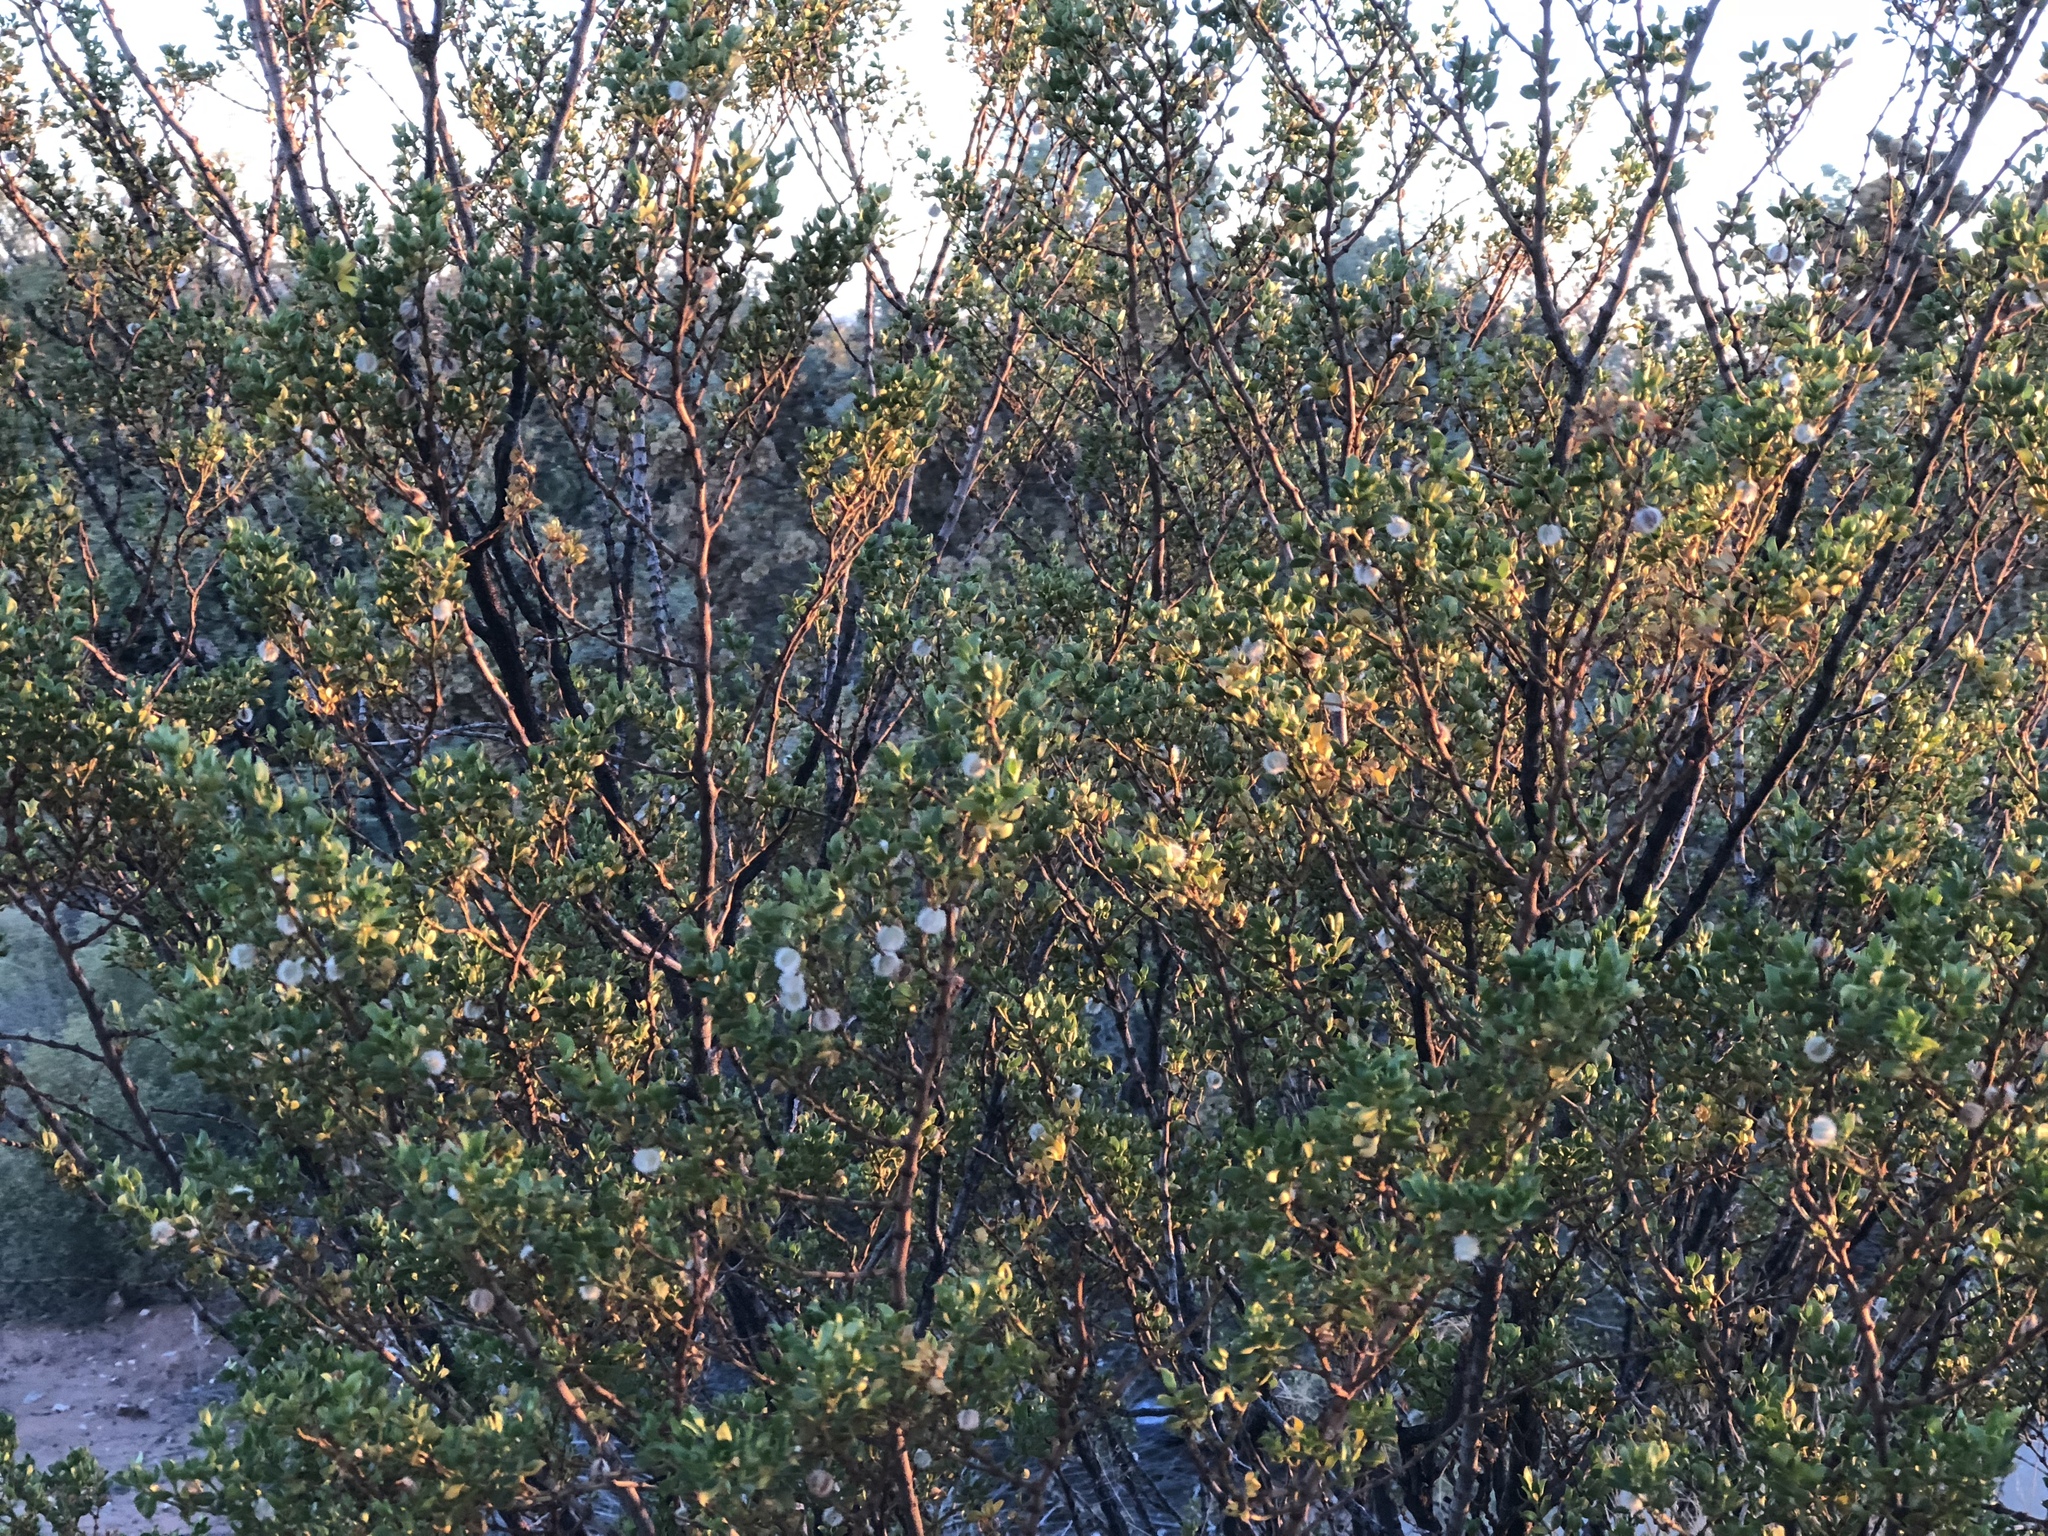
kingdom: Plantae
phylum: Tracheophyta
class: Magnoliopsida
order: Zygophyllales
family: Zygophyllaceae
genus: Larrea
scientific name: Larrea tridentata
